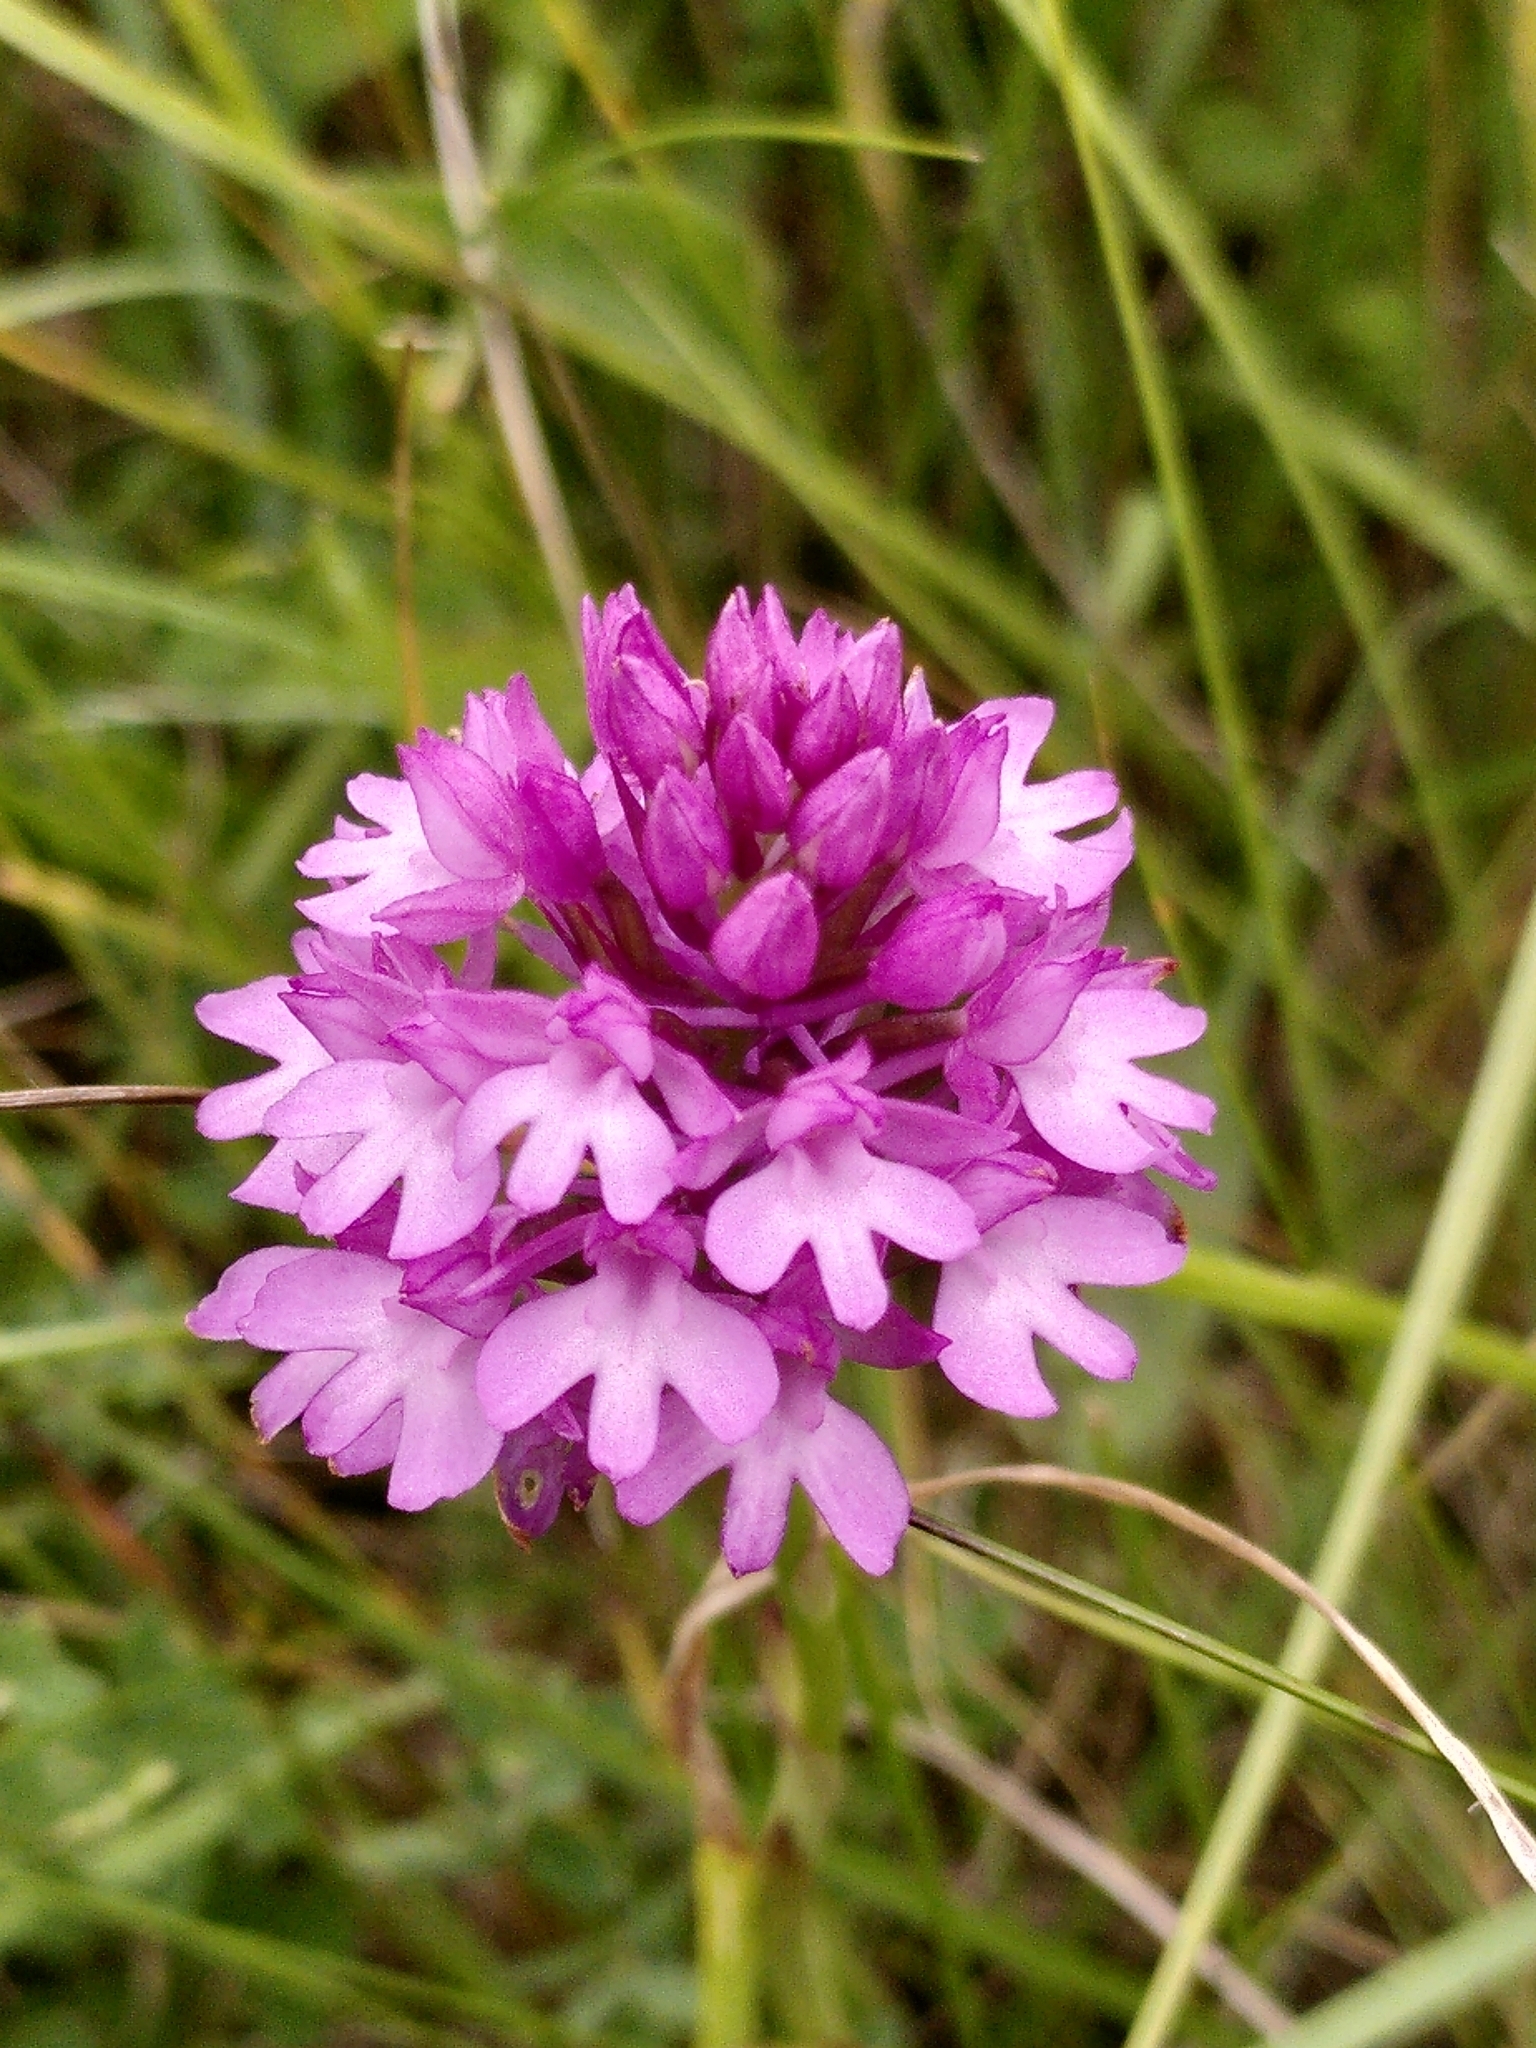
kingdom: Plantae
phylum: Tracheophyta
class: Liliopsida
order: Asparagales
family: Orchidaceae
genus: Anacamptis
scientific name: Anacamptis pyramidalis
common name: Pyramidal orchid
